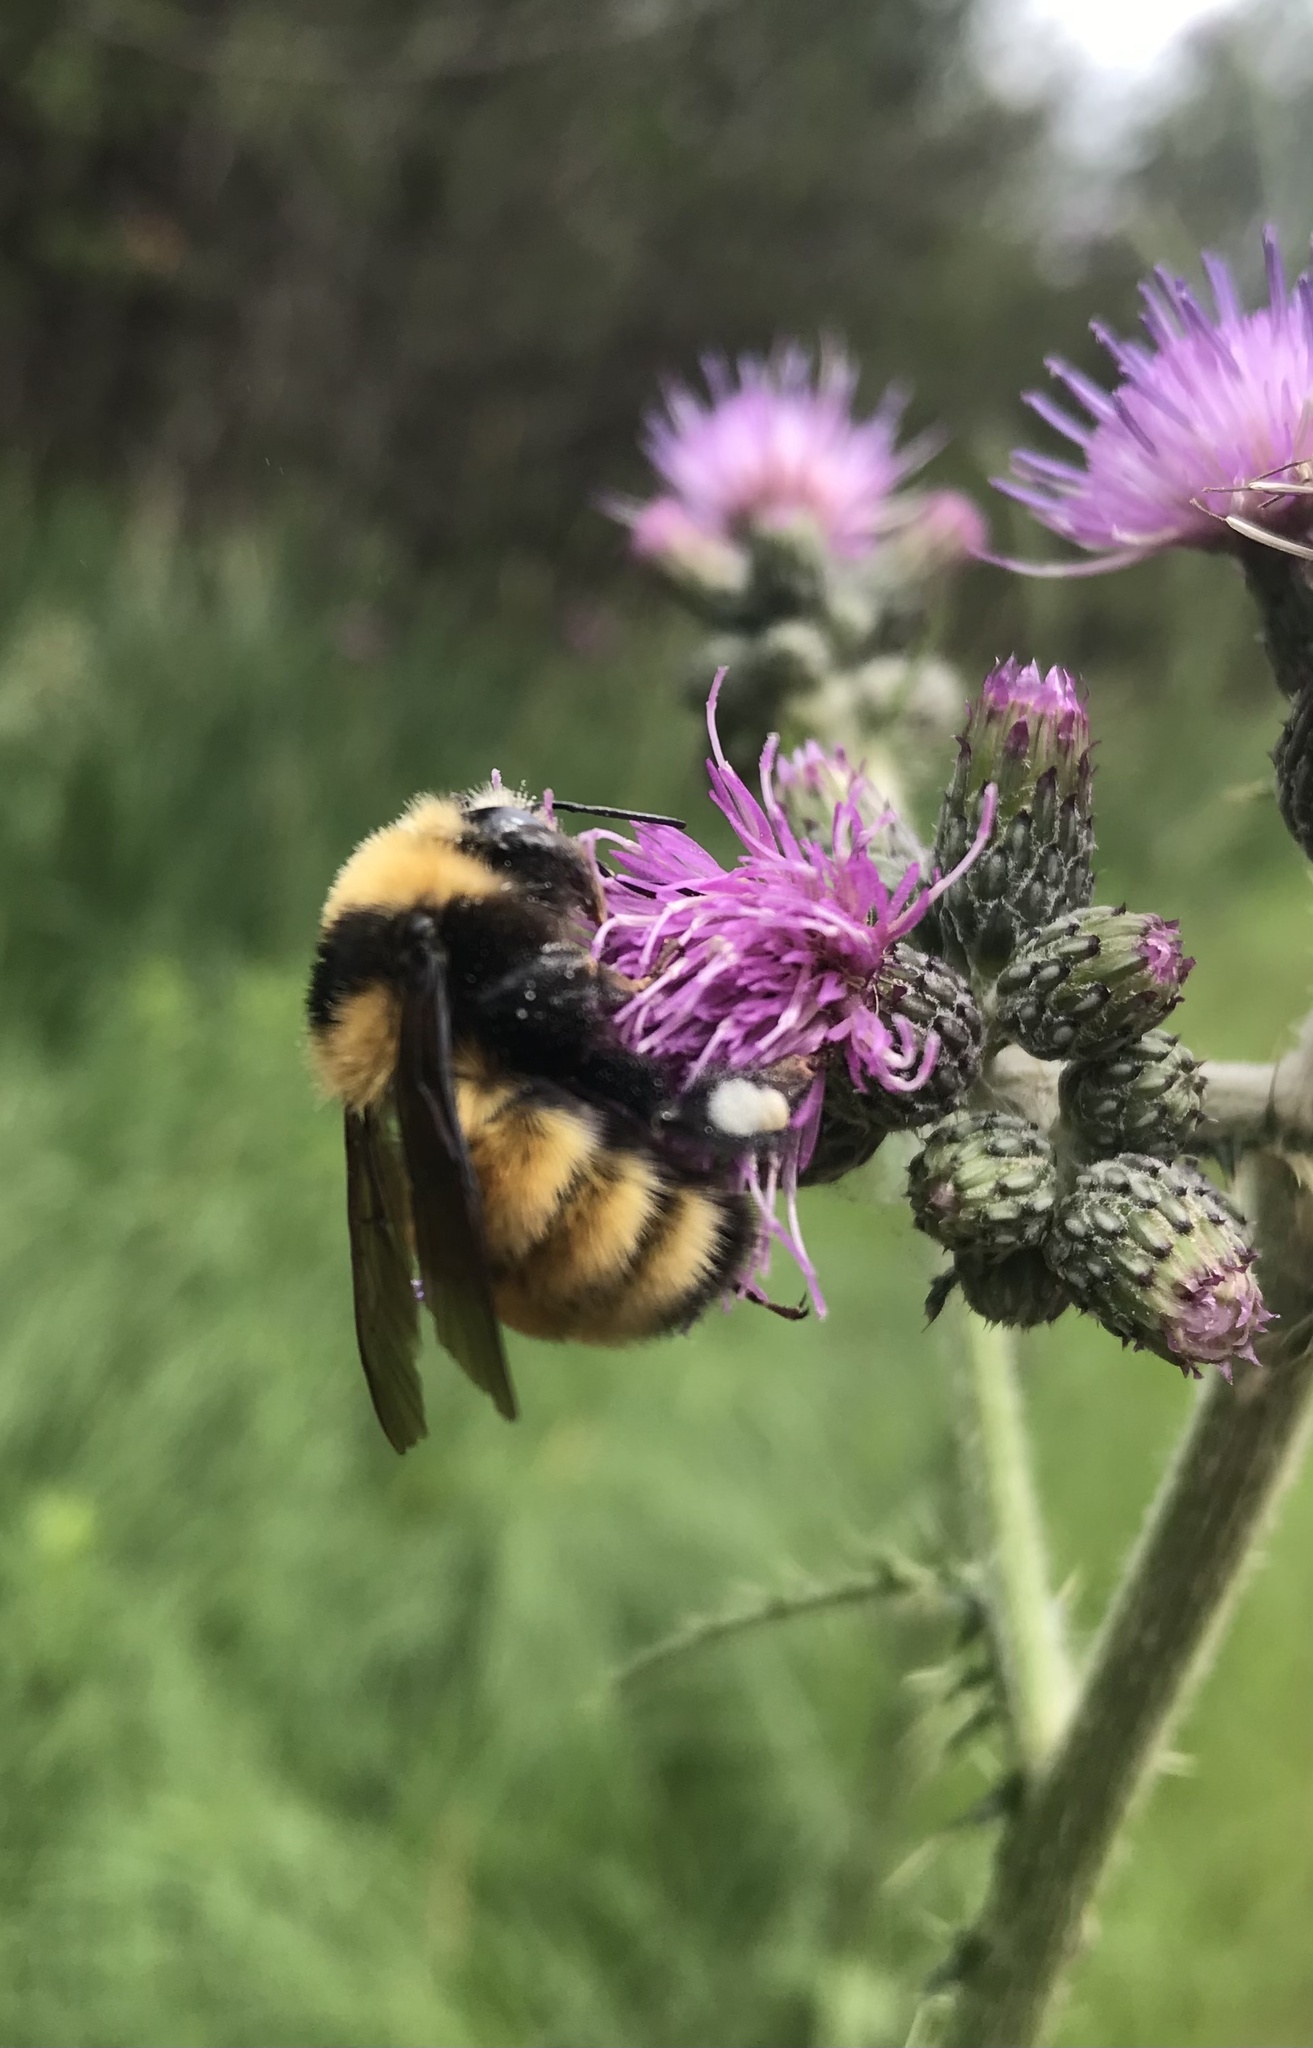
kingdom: Animalia
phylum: Arthropoda
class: Insecta
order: Hymenoptera
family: Apidae
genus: Bombus
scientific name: Bombus borealis
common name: Northern amber bumble bee
